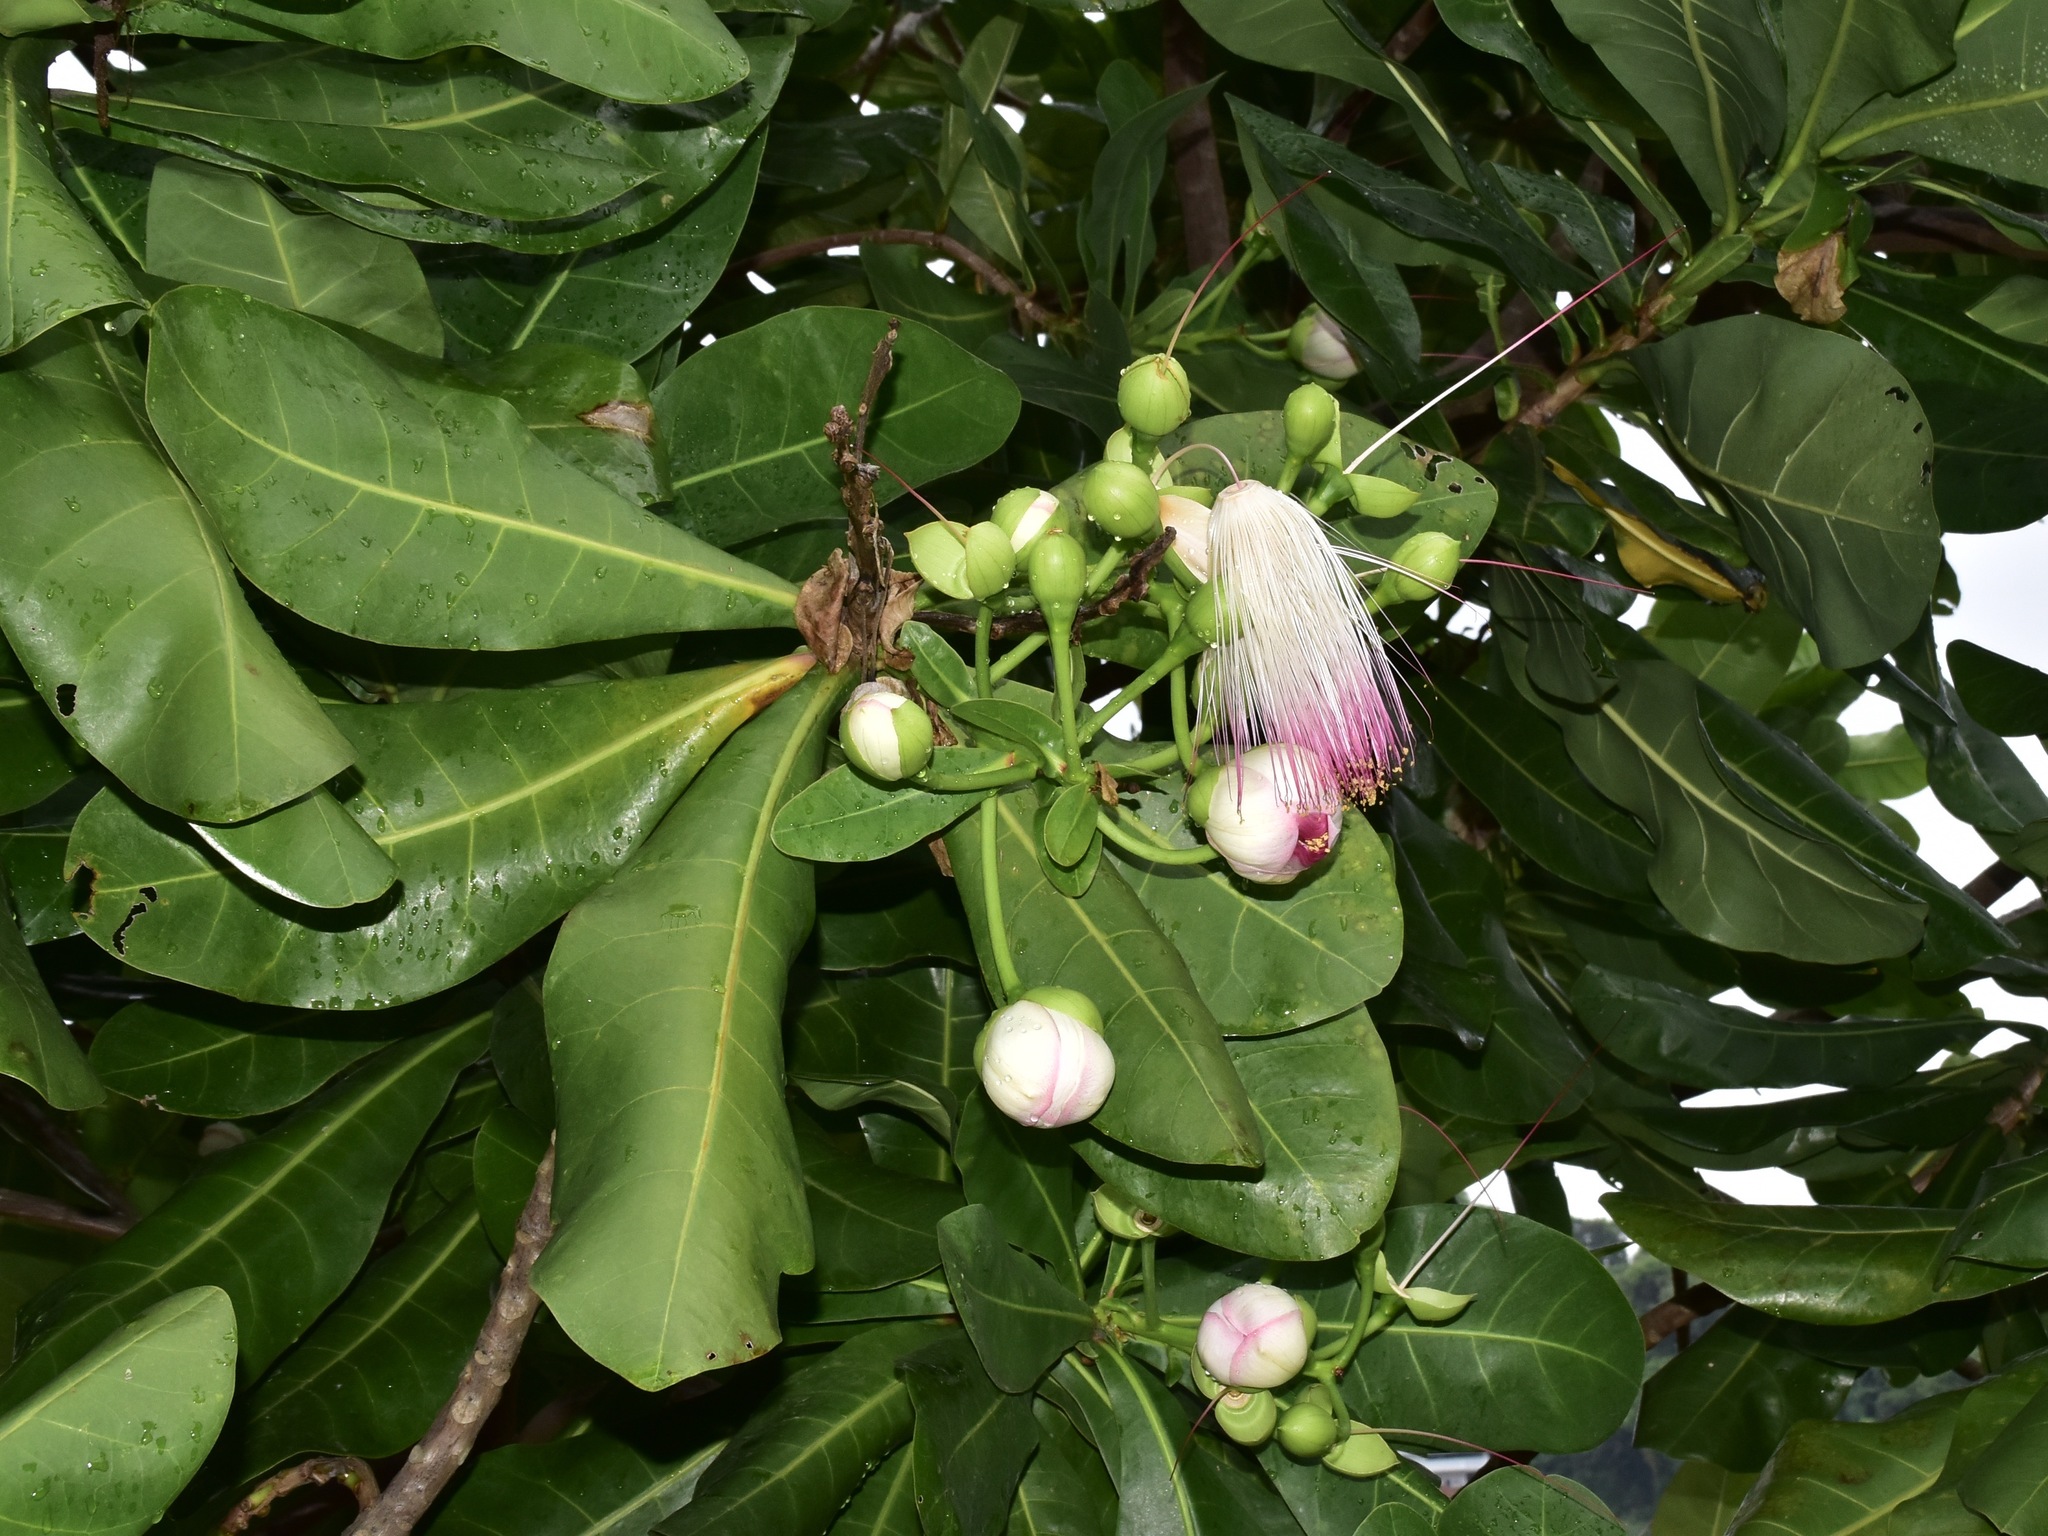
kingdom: Plantae
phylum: Tracheophyta
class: Magnoliopsida
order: Ericales
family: Lecythidaceae
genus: Barringtonia
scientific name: Barringtonia asiatica
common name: Mango-pine
